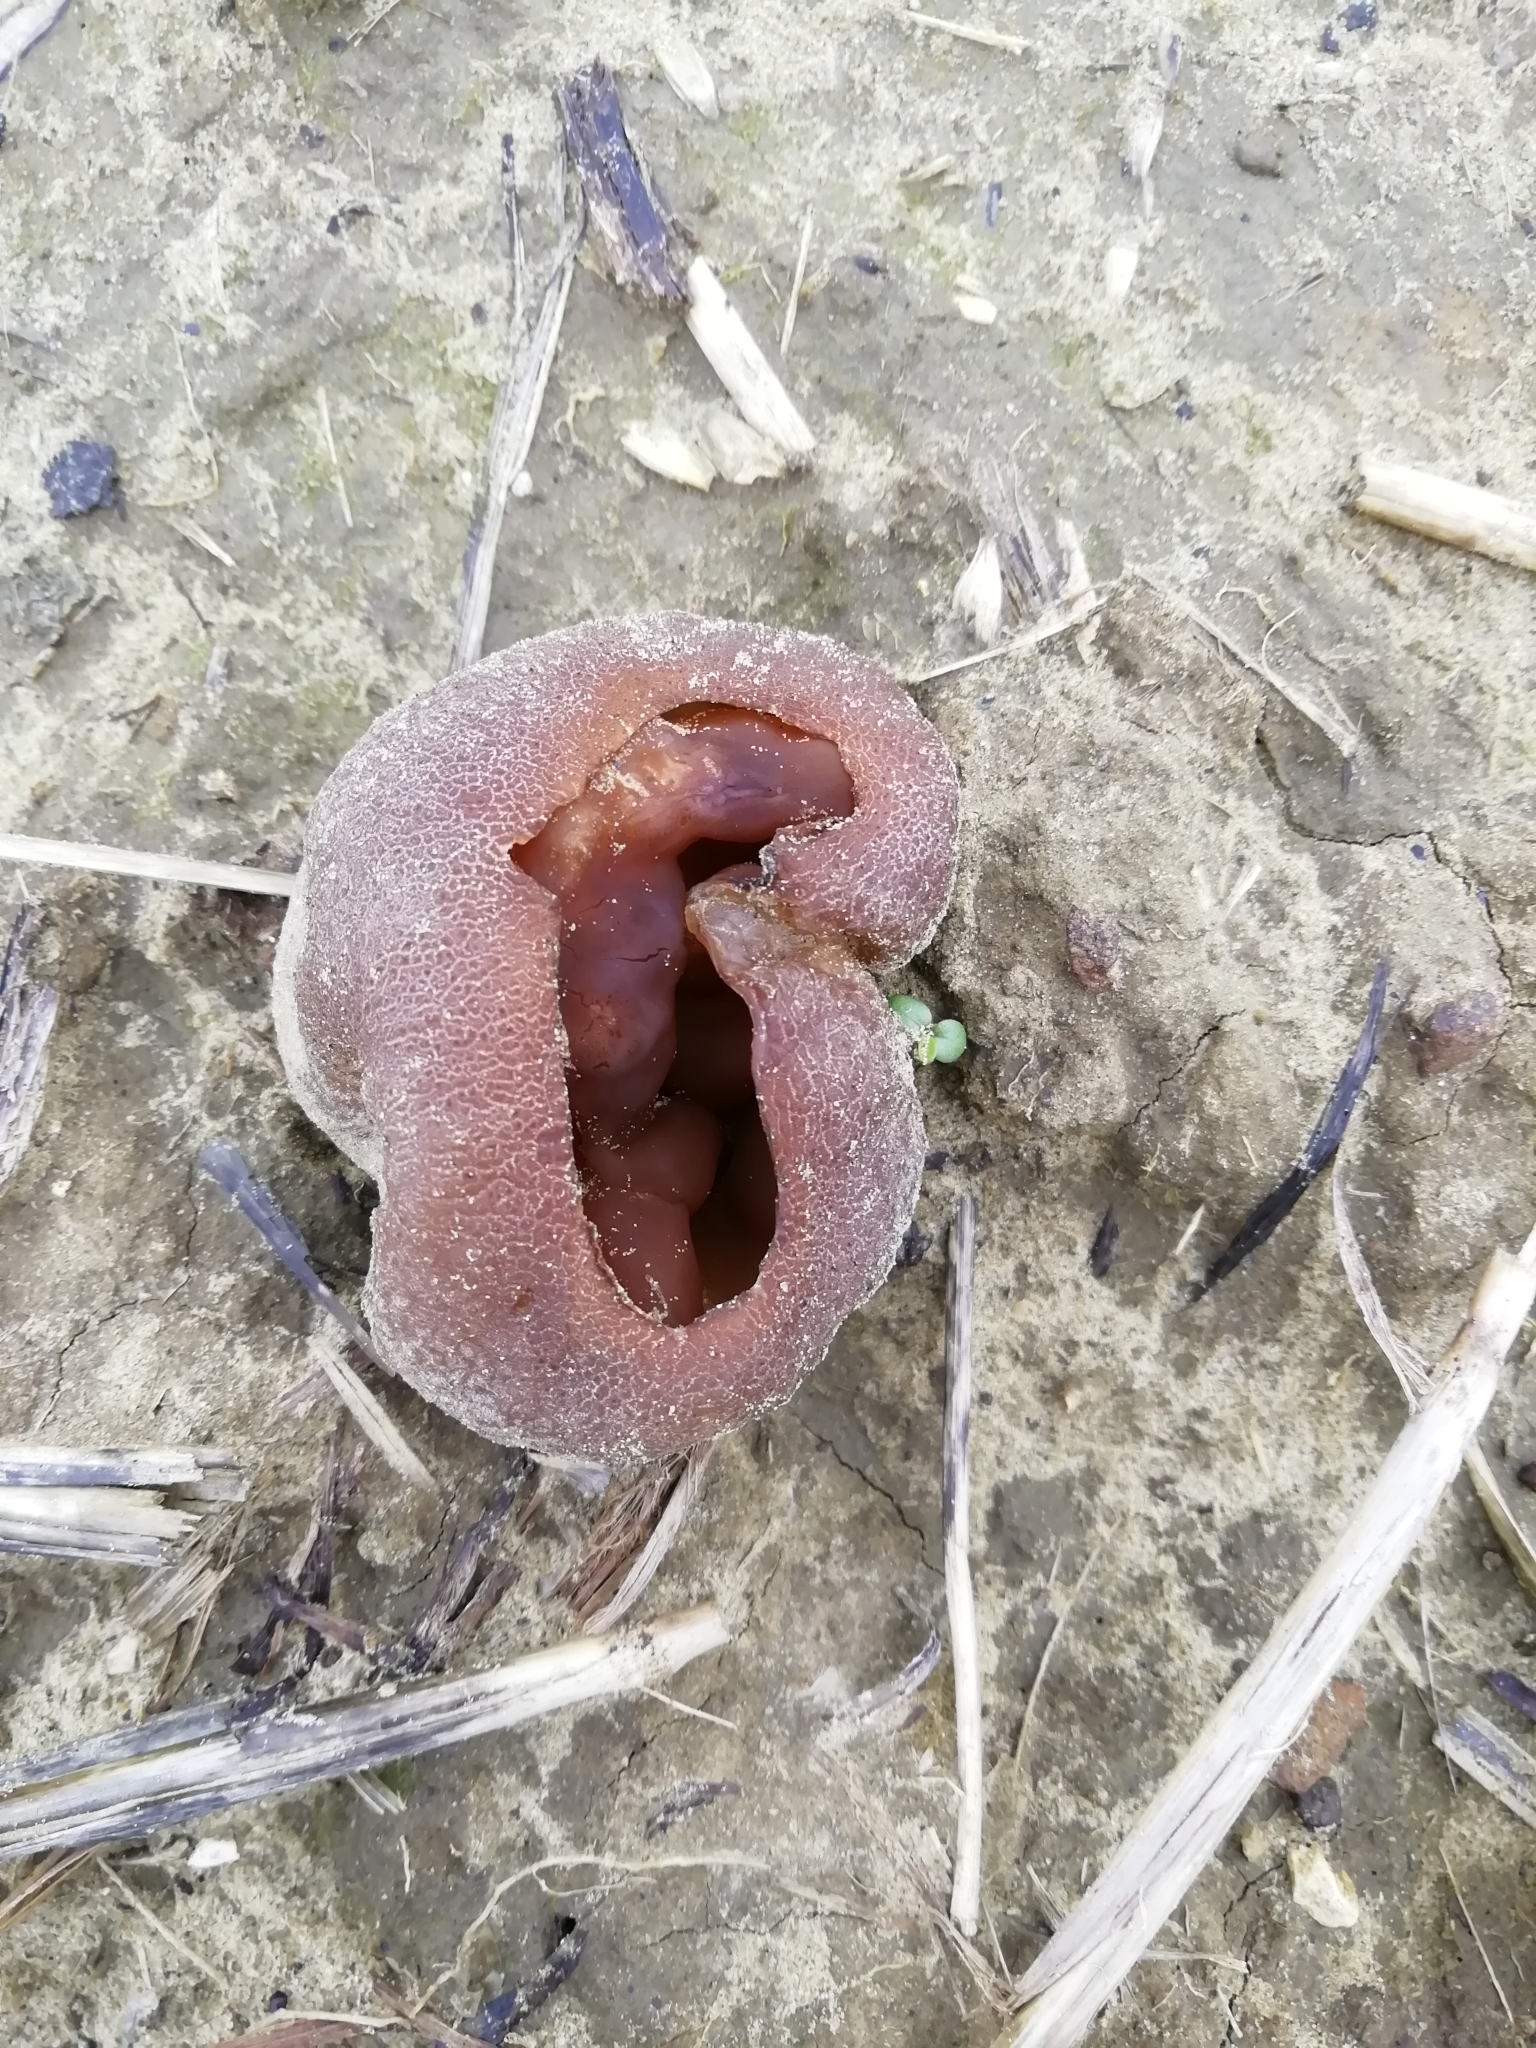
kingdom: Fungi
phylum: Ascomycota
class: Pezizomycetes
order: Pezizales
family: Pezizaceae
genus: Peziza
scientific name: Peziza varia
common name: Layered cup
